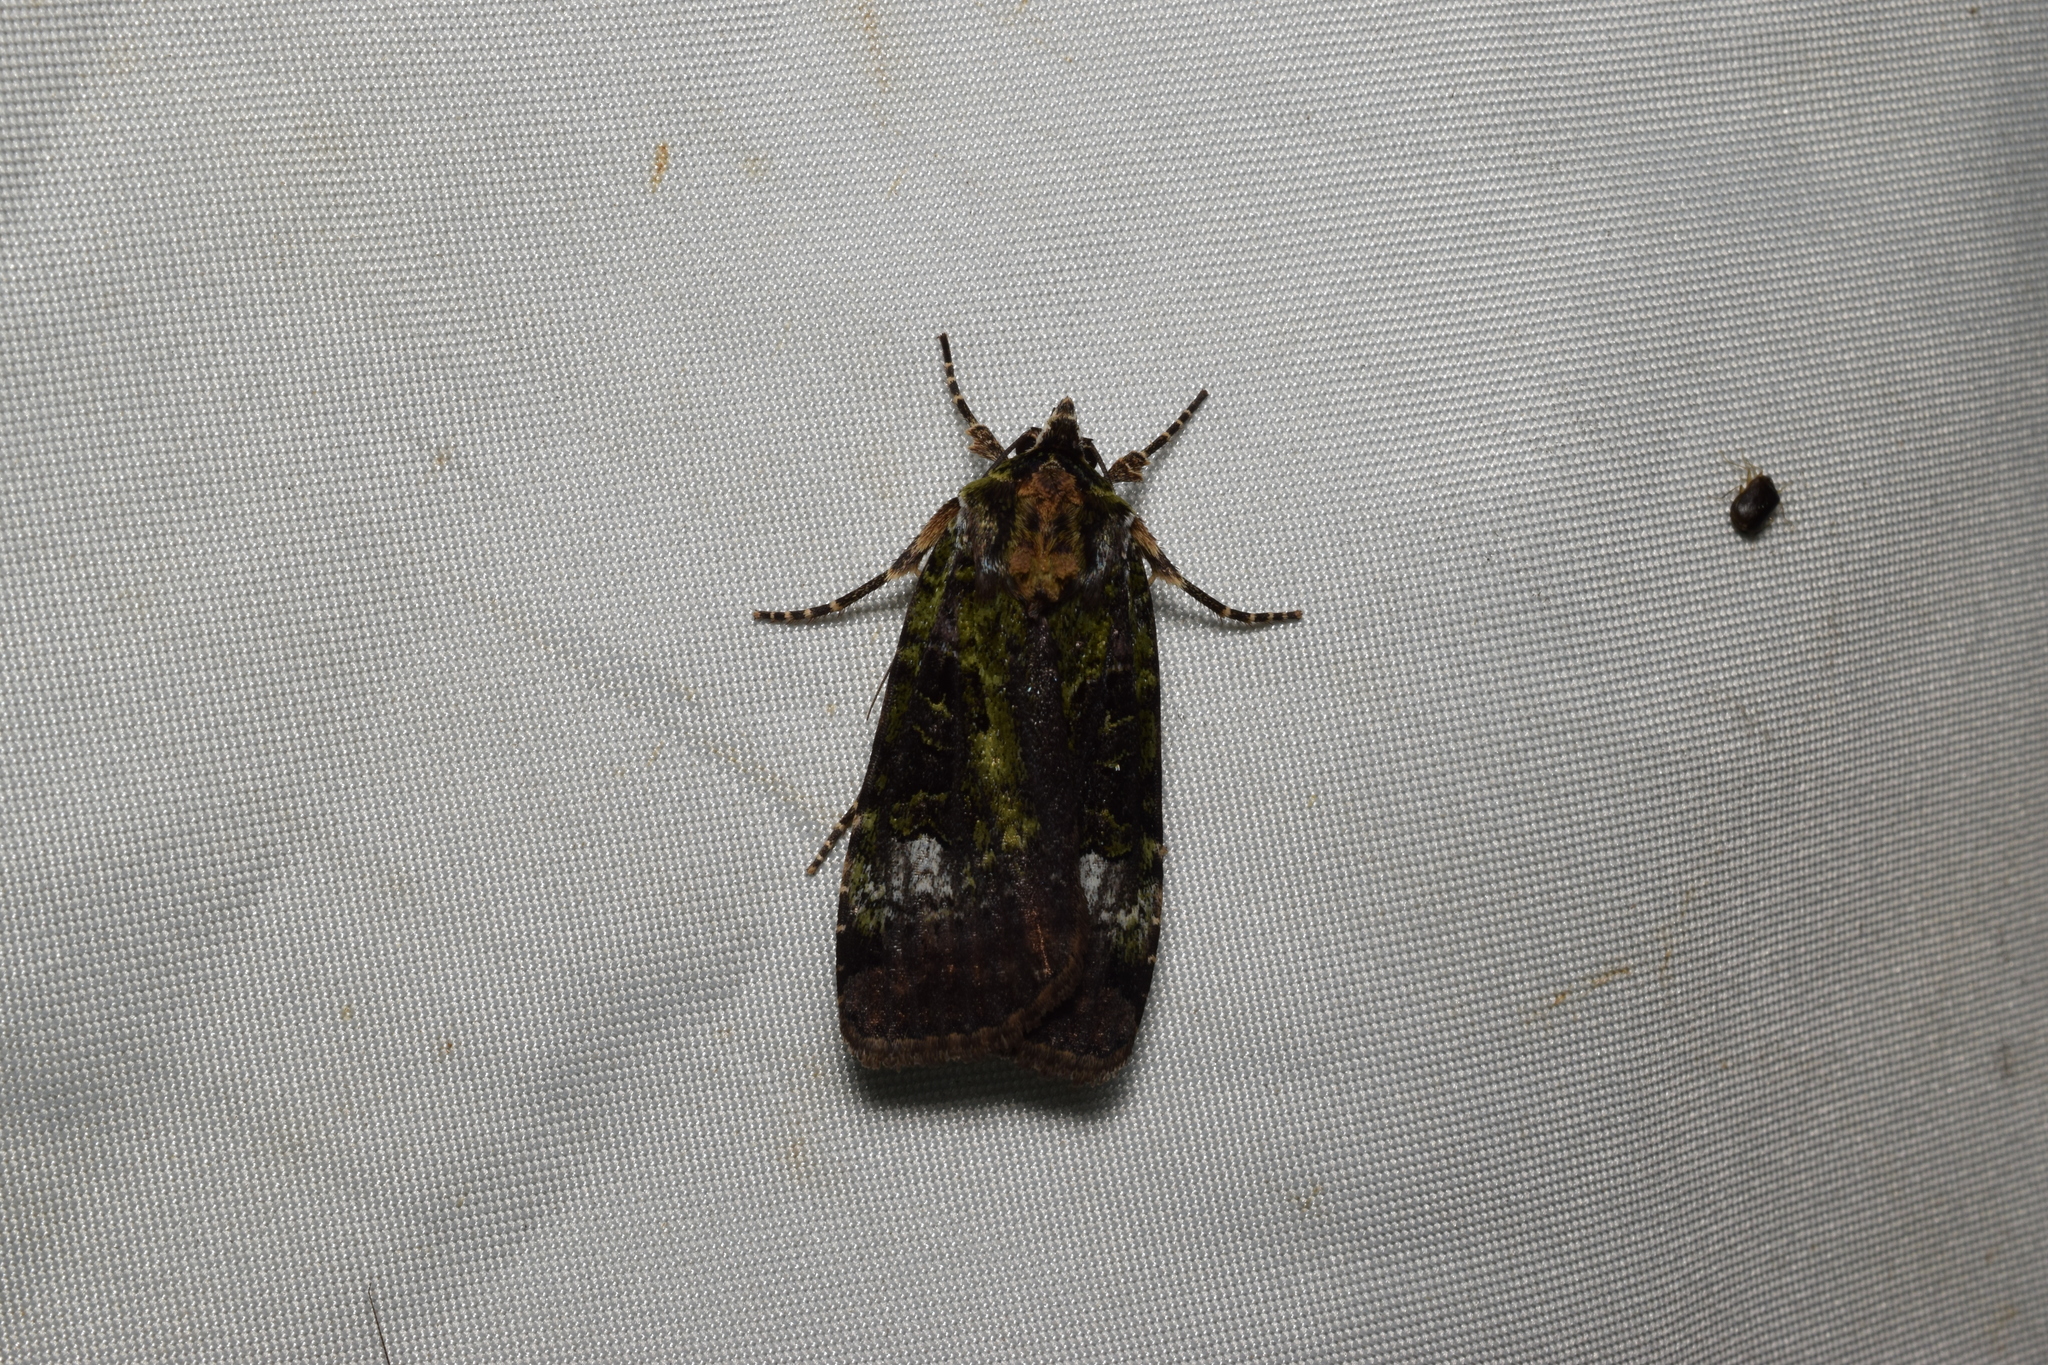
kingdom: Animalia
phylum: Arthropoda
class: Insecta
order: Lepidoptera
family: Noctuidae
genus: Xestia
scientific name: Xestia efflorescens
